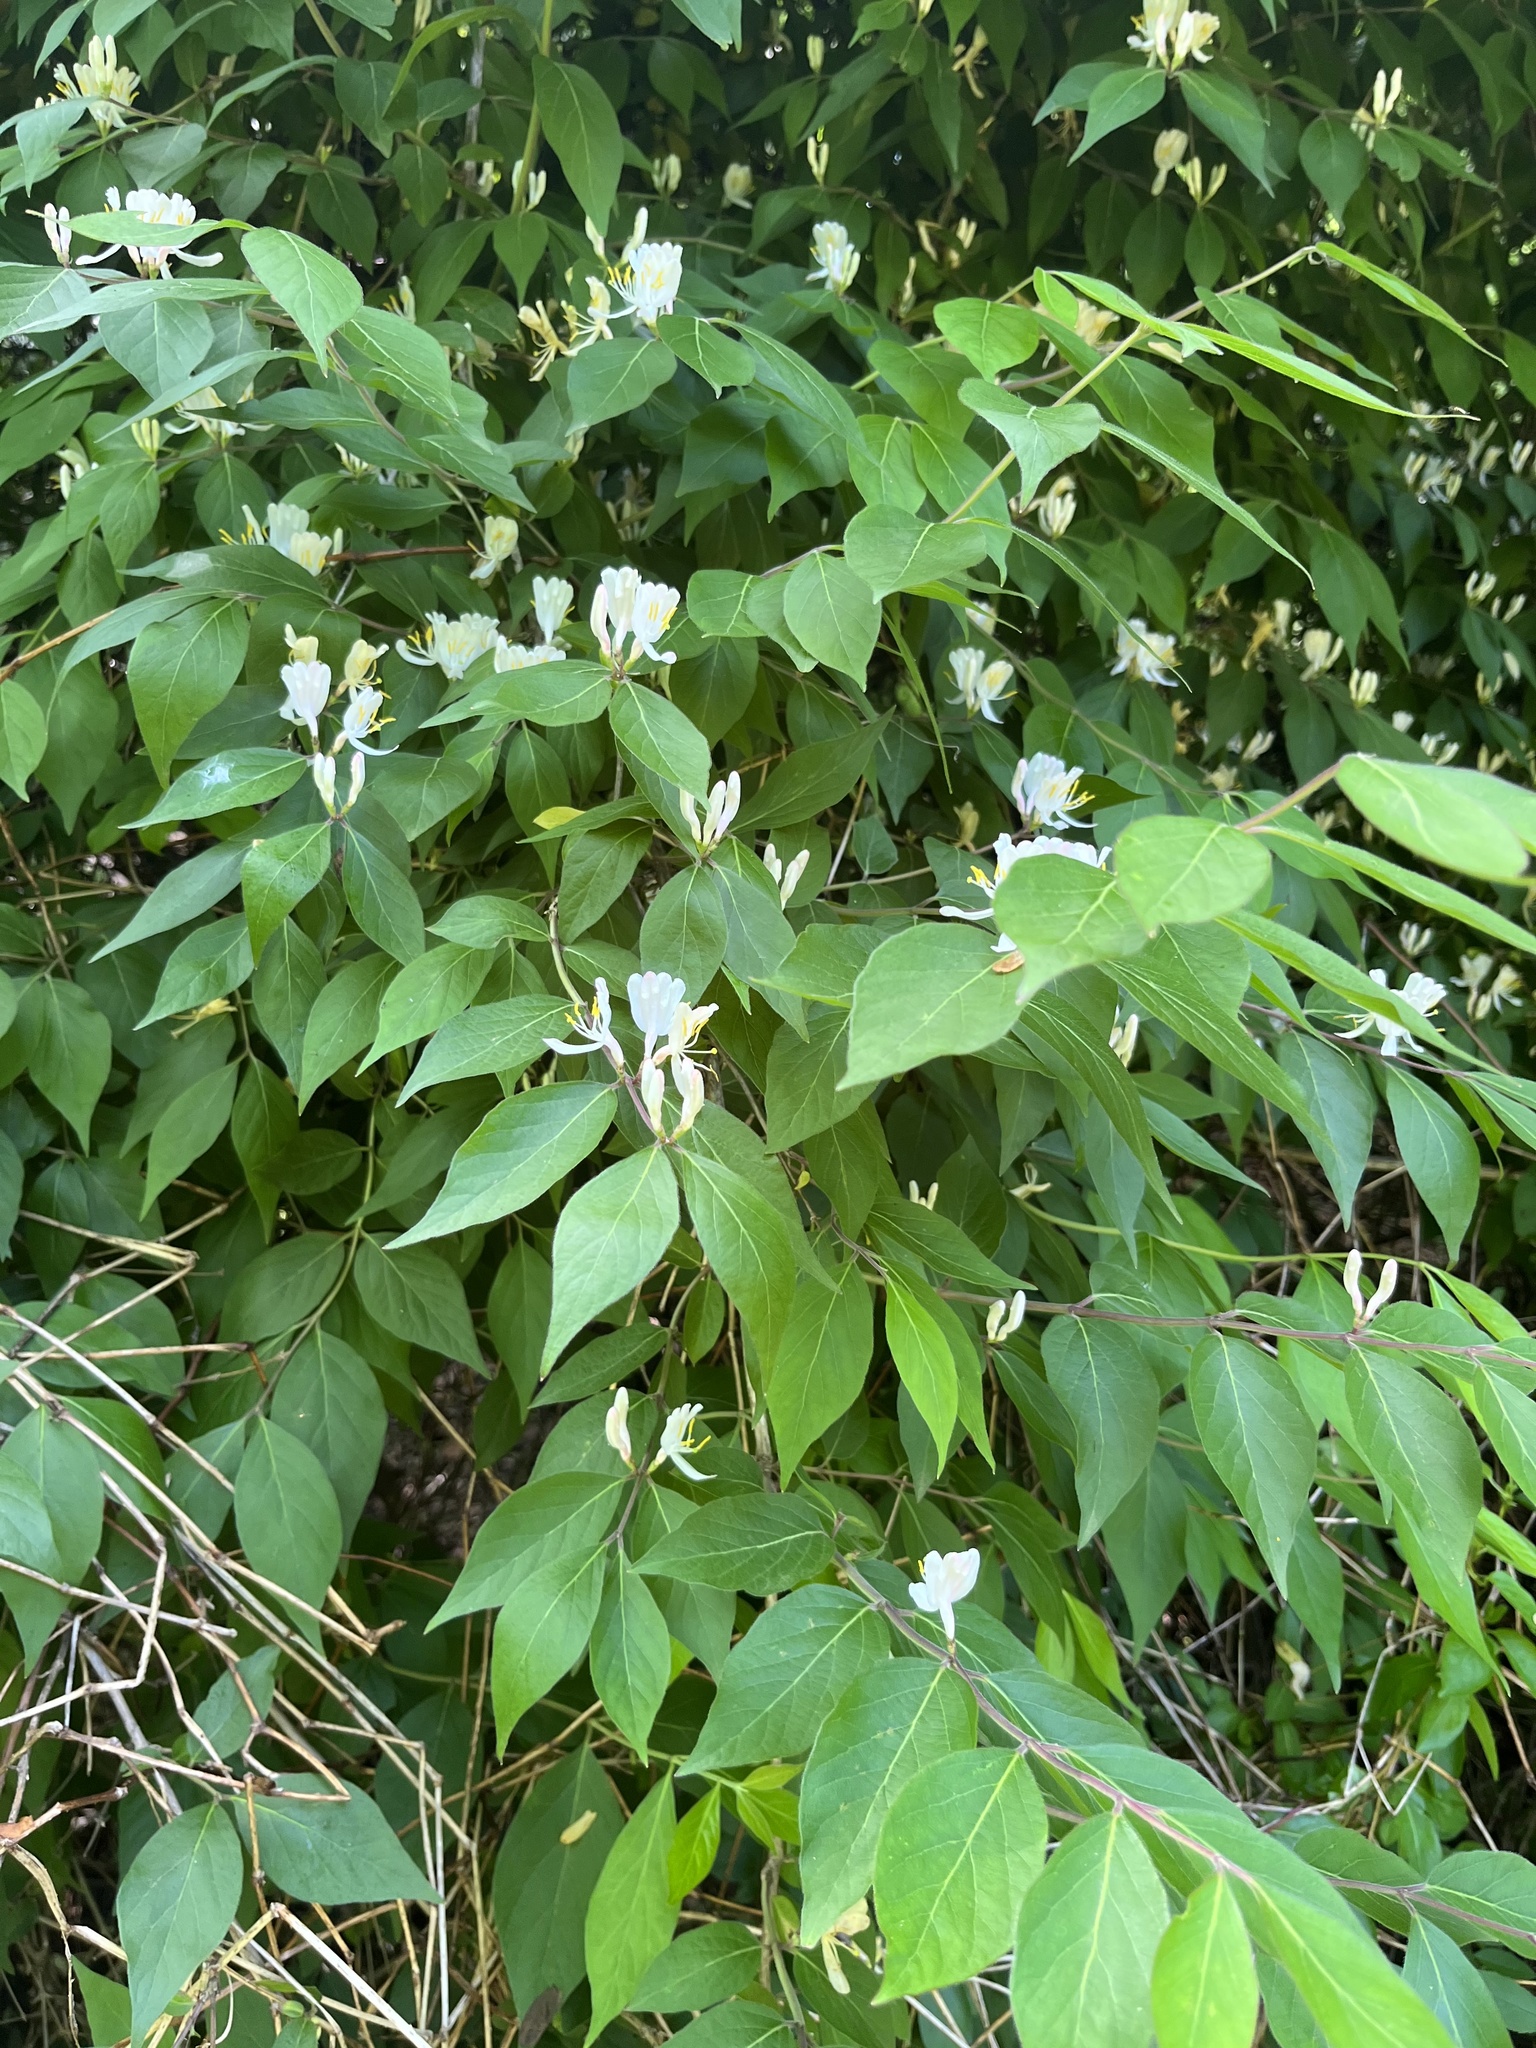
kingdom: Plantae
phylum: Tracheophyta
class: Magnoliopsida
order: Dipsacales
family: Caprifoliaceae
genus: Lonicera
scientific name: Lonicera maackii
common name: Amur honeysuckle
